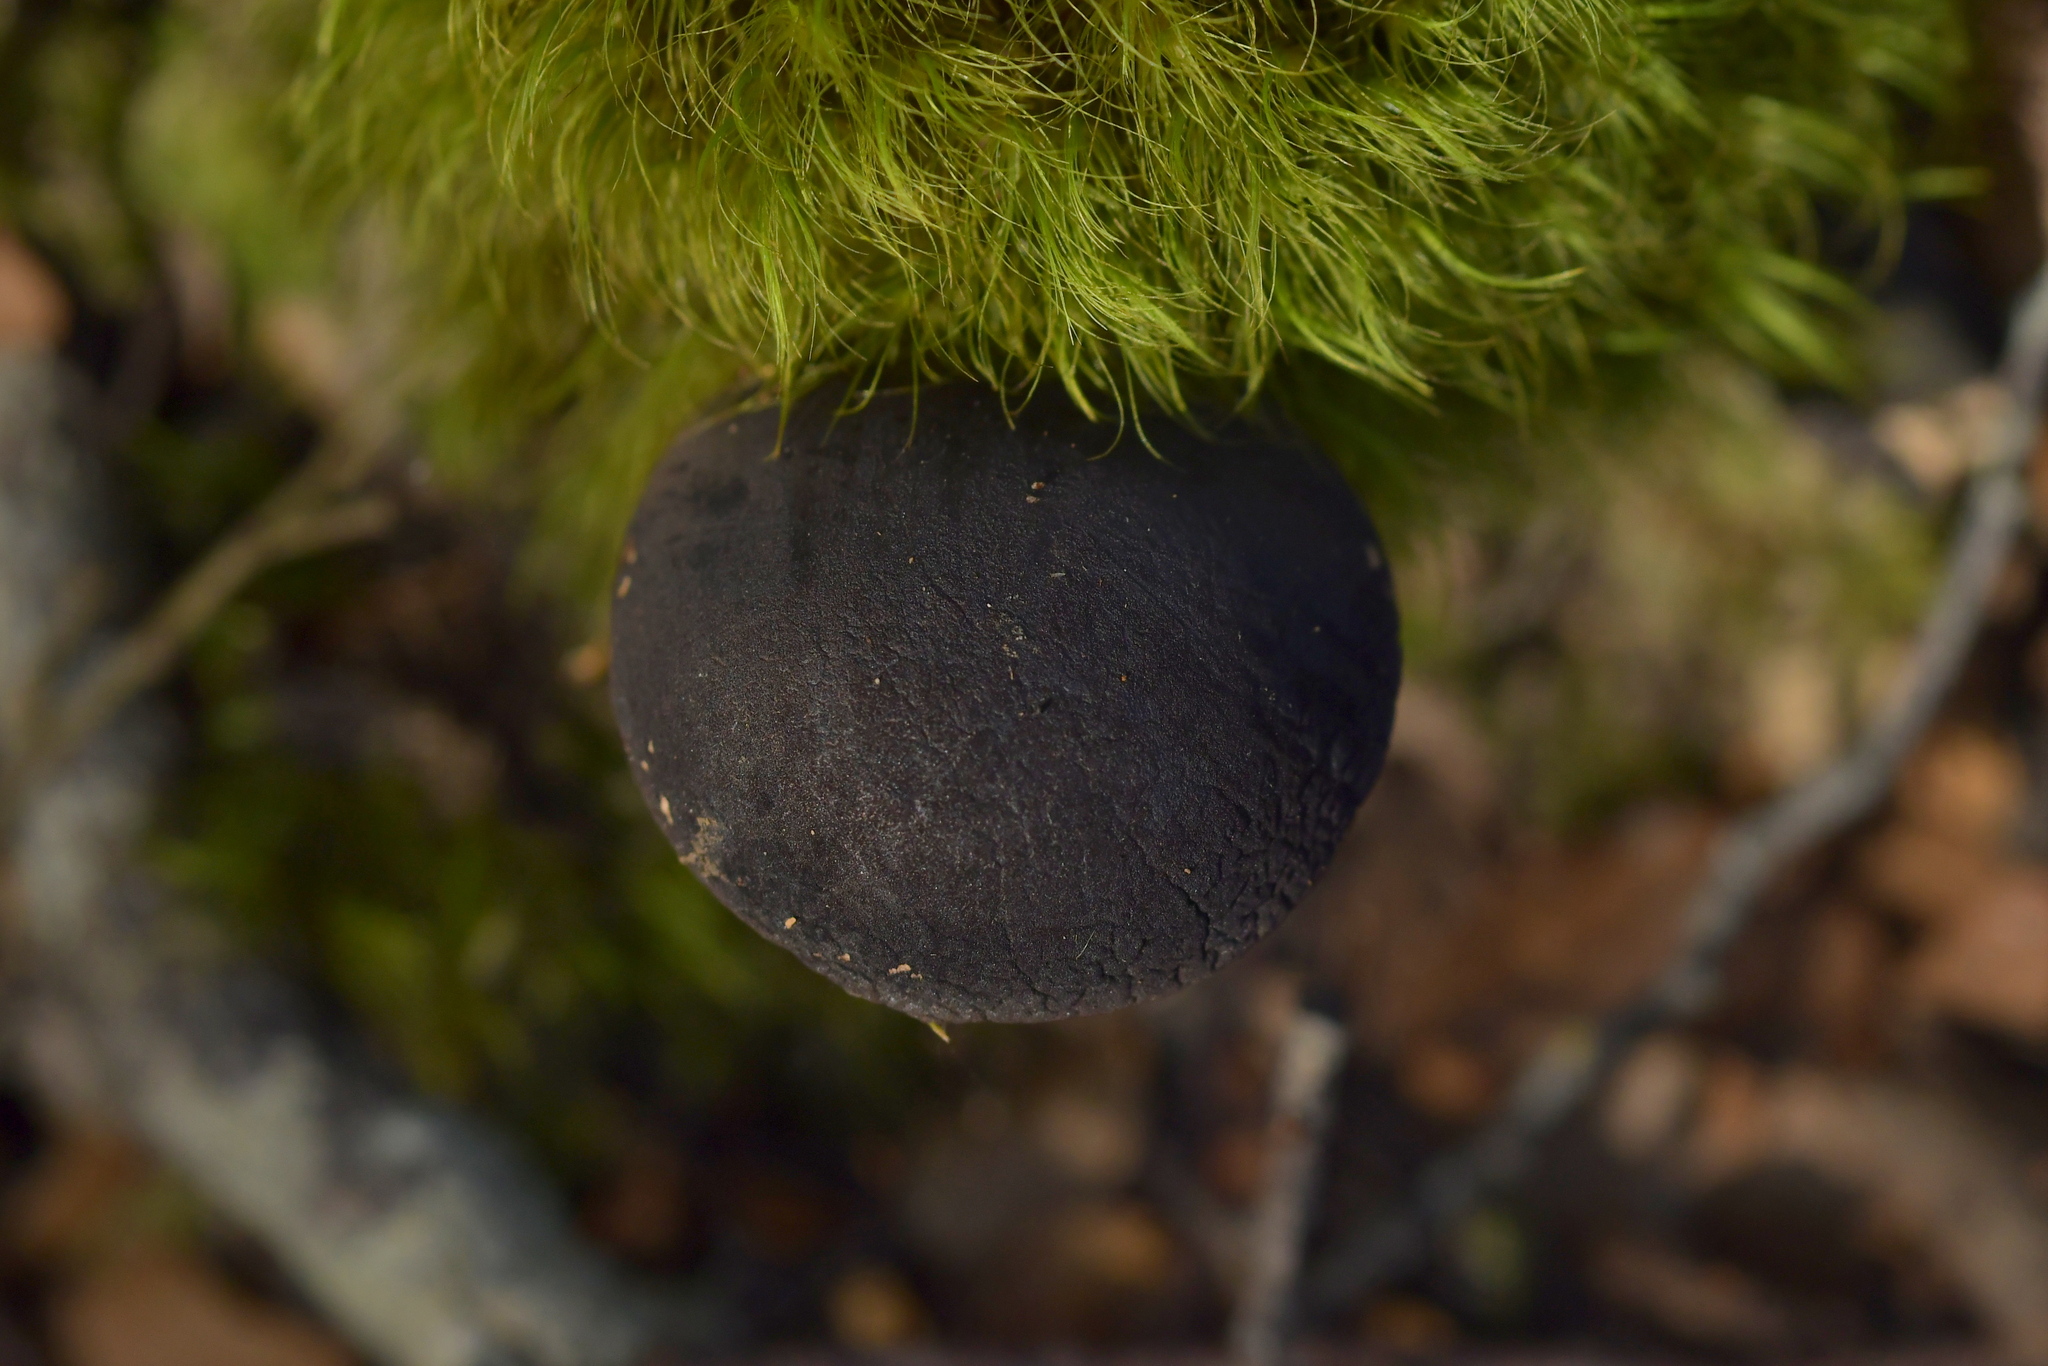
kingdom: Fungi
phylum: Basidiomycota
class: Agaricomycetes
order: Boletales
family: Boletaceae
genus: Porphyrellus
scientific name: Porphyrellus formosus
